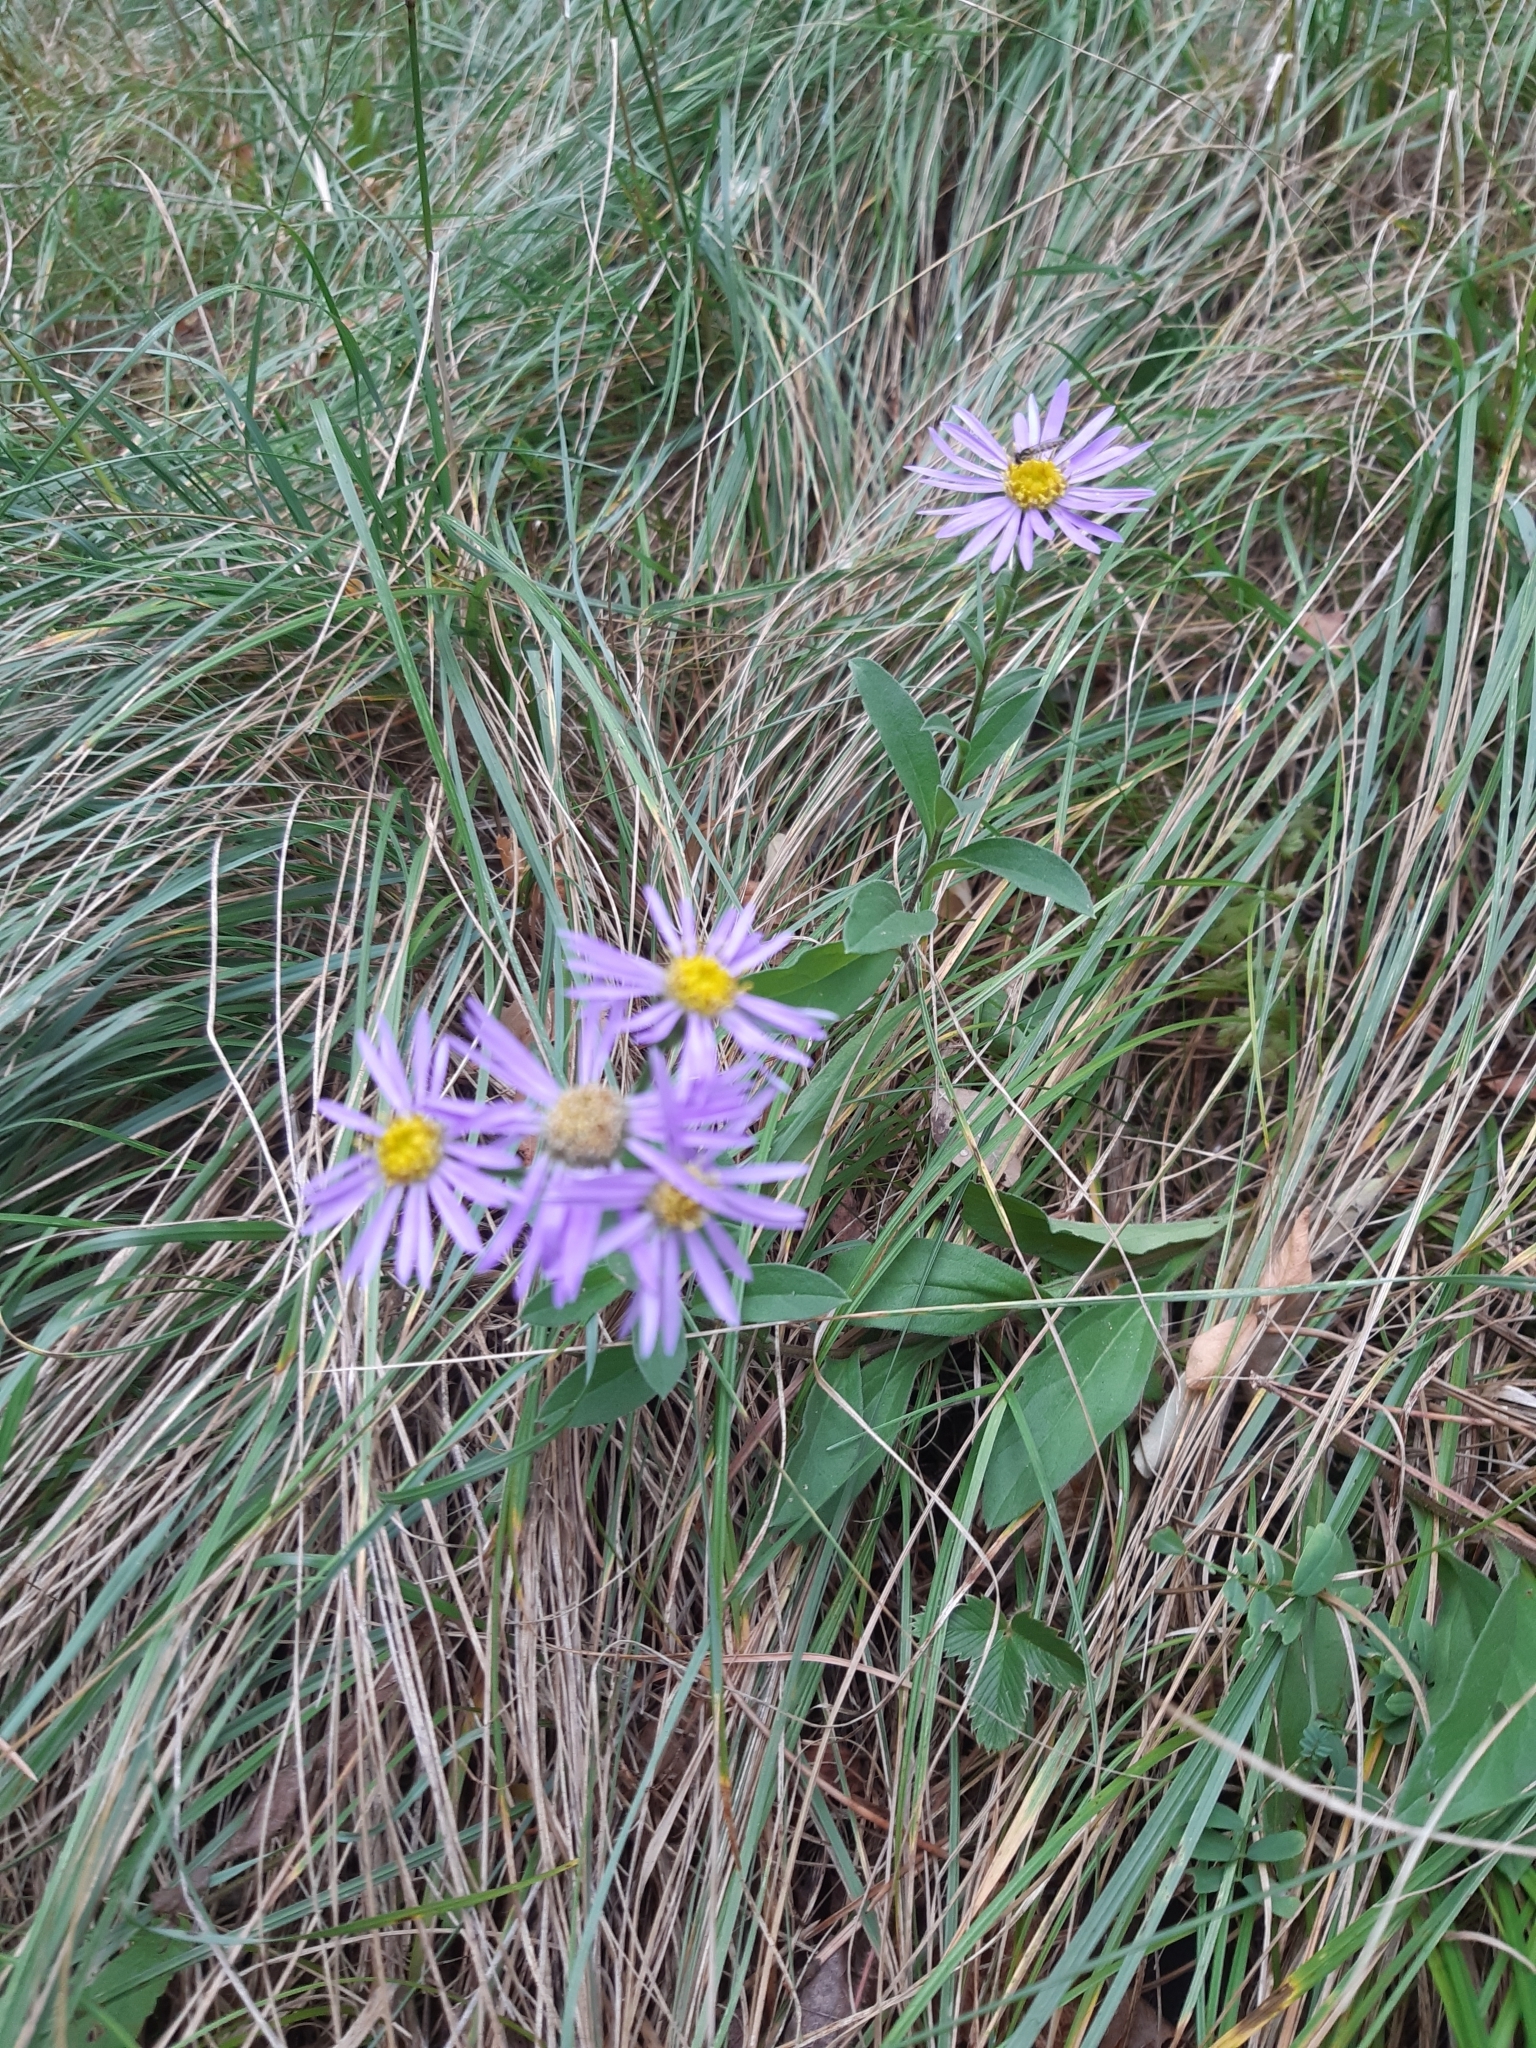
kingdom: Plantae
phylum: Tracheophyta
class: Magnoliopsida
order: Asterales
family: Asteraceae
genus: Aster
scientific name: Aster amellus
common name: European michaelmas daisy
